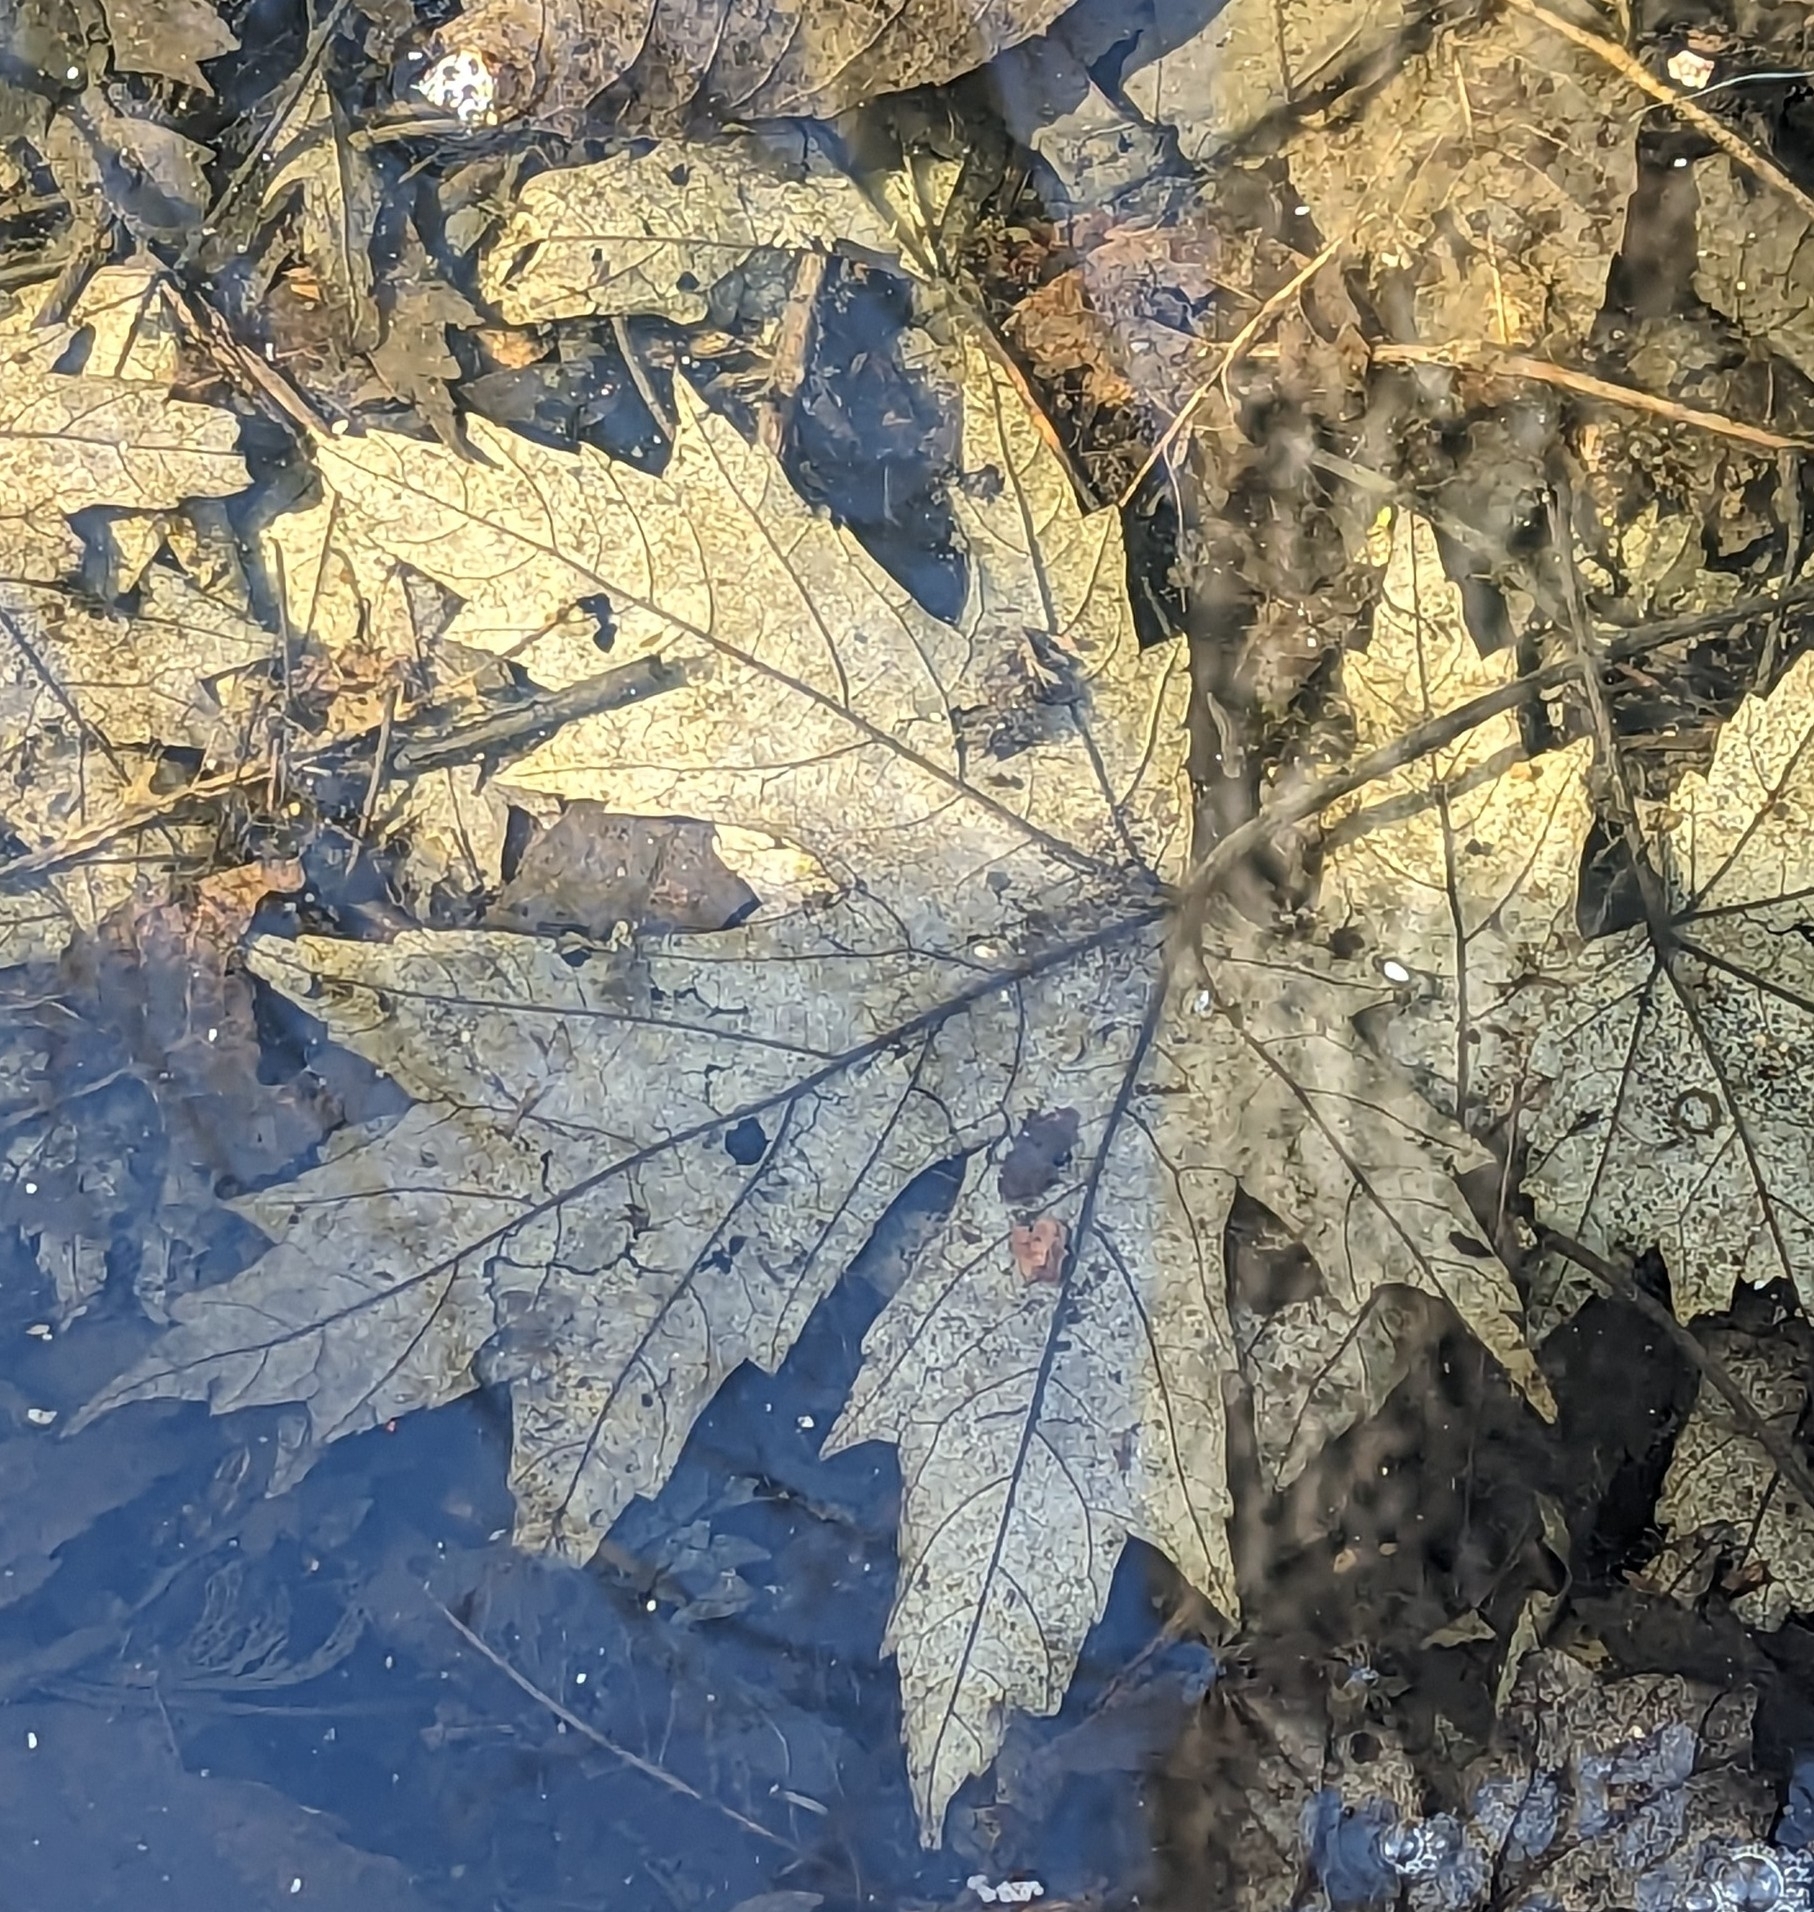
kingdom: Plantae
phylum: Tracheophyta
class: Magnoliopsida
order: Sapindales
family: Sapindaceae
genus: Acer
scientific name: Acer saccharinum
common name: Silver maple
